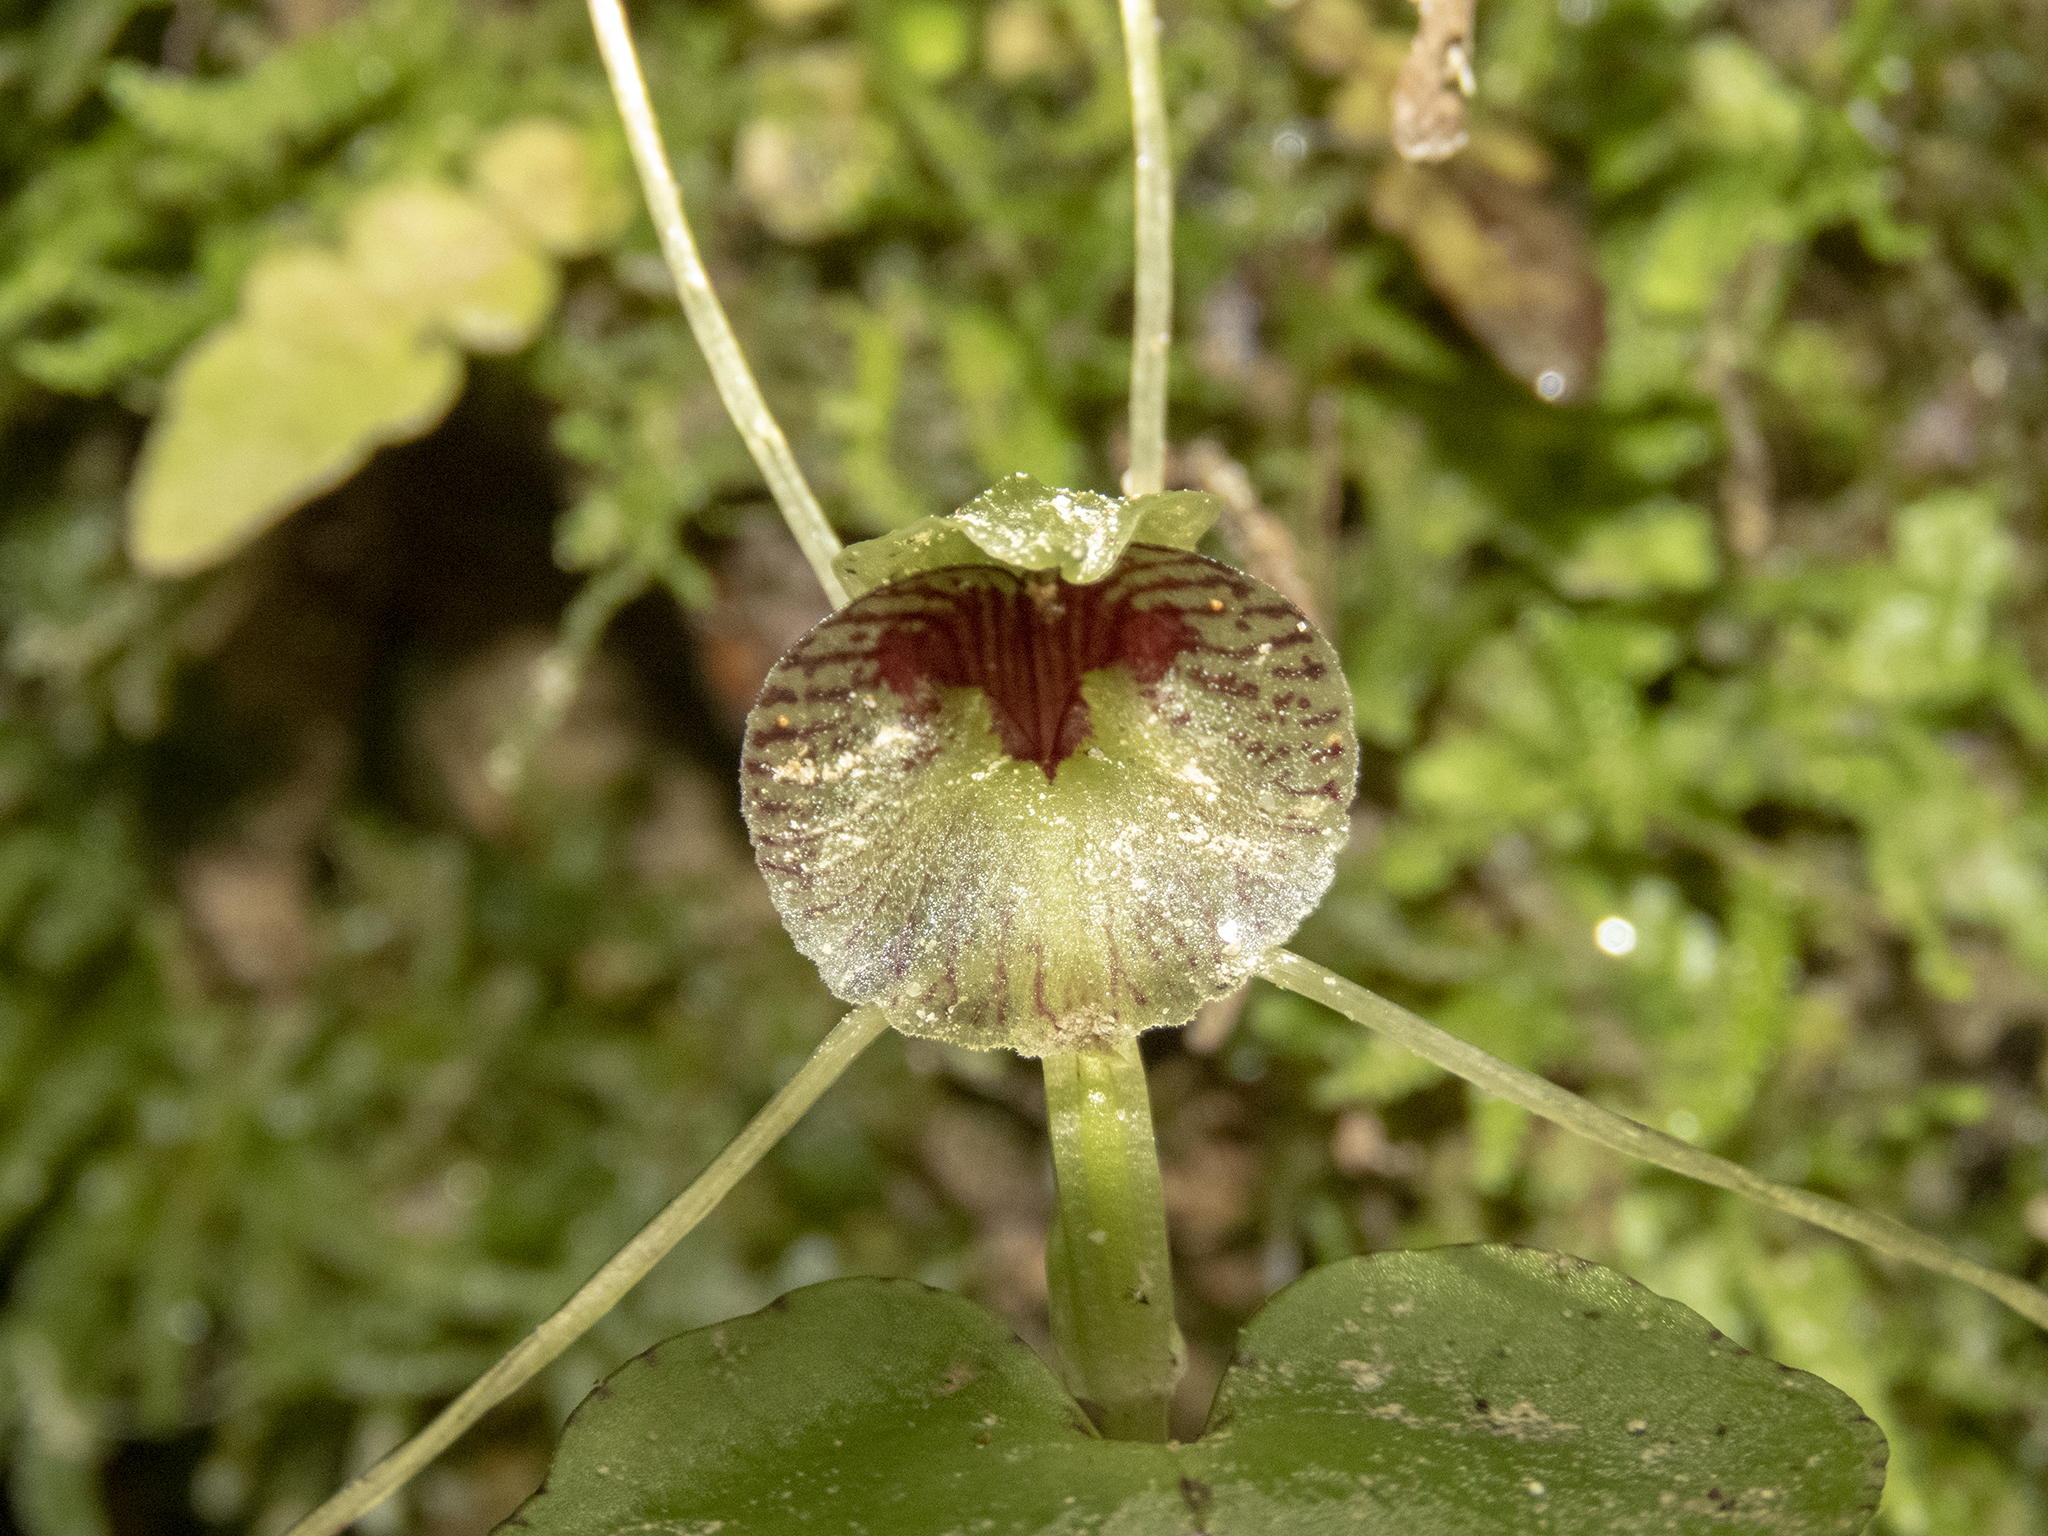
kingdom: Plantae
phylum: Tracheophyta
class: Liliopsida
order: Asparagales
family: Orchidaceae
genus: Corybas
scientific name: Corybas iridescens
